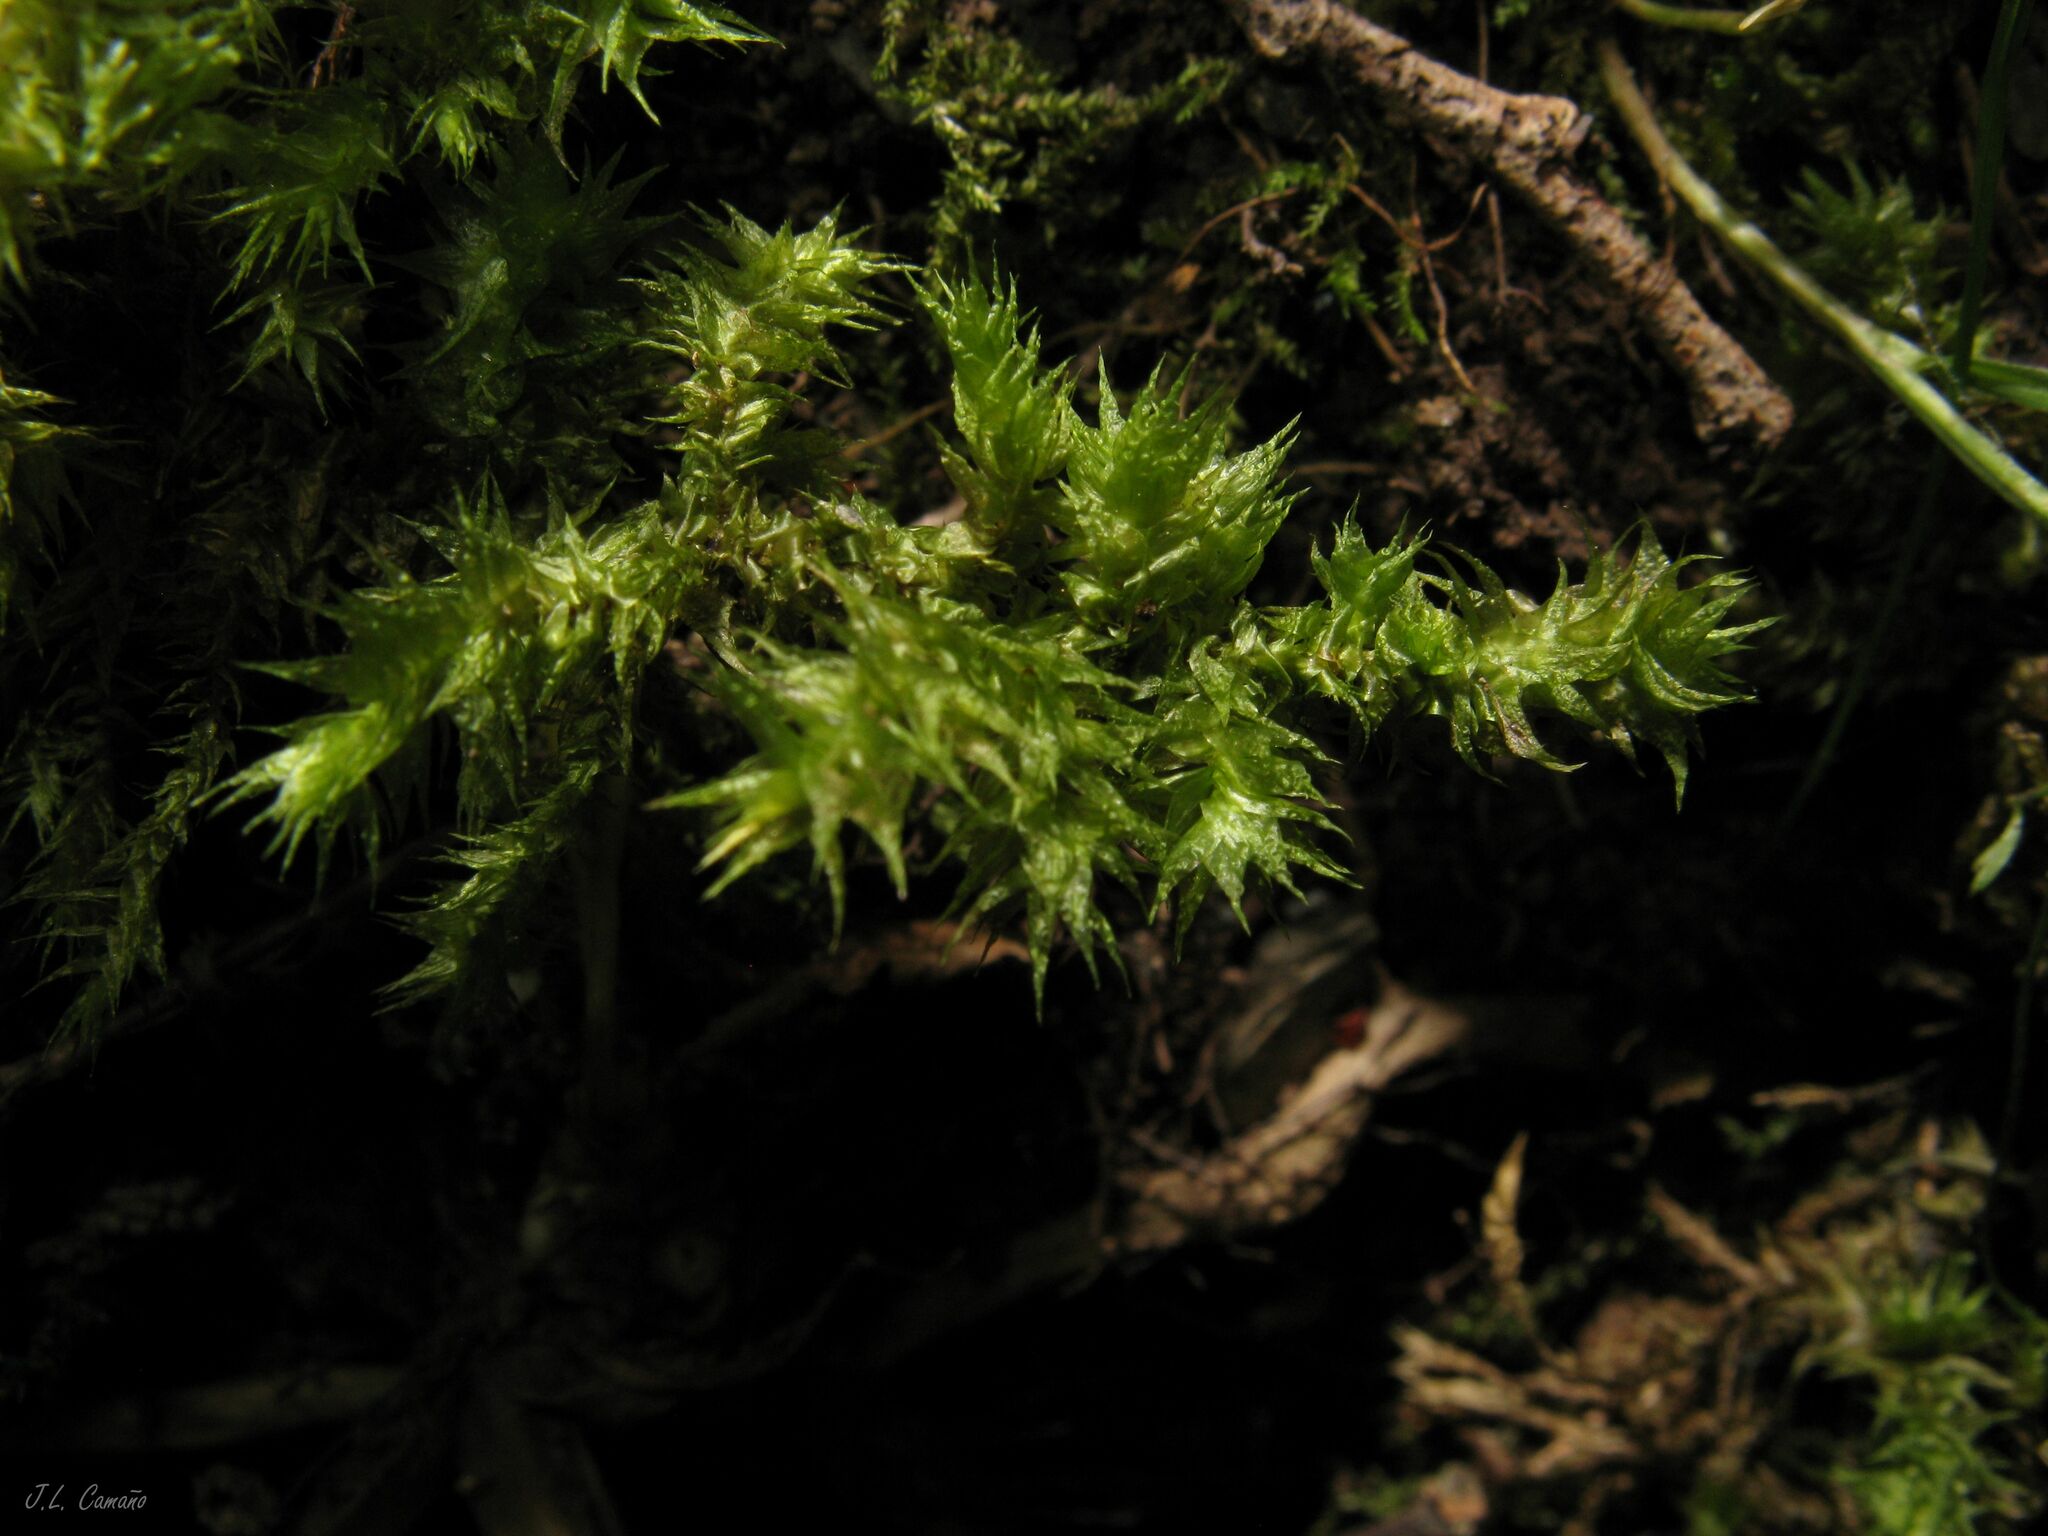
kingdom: Plantae
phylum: Bryophyta
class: Bryopsida
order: Hypnales
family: Hylocomiaceae
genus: Hylocomiadelphus
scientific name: Hylocomiadelphus triquetrus
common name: Rough goose neck moss
